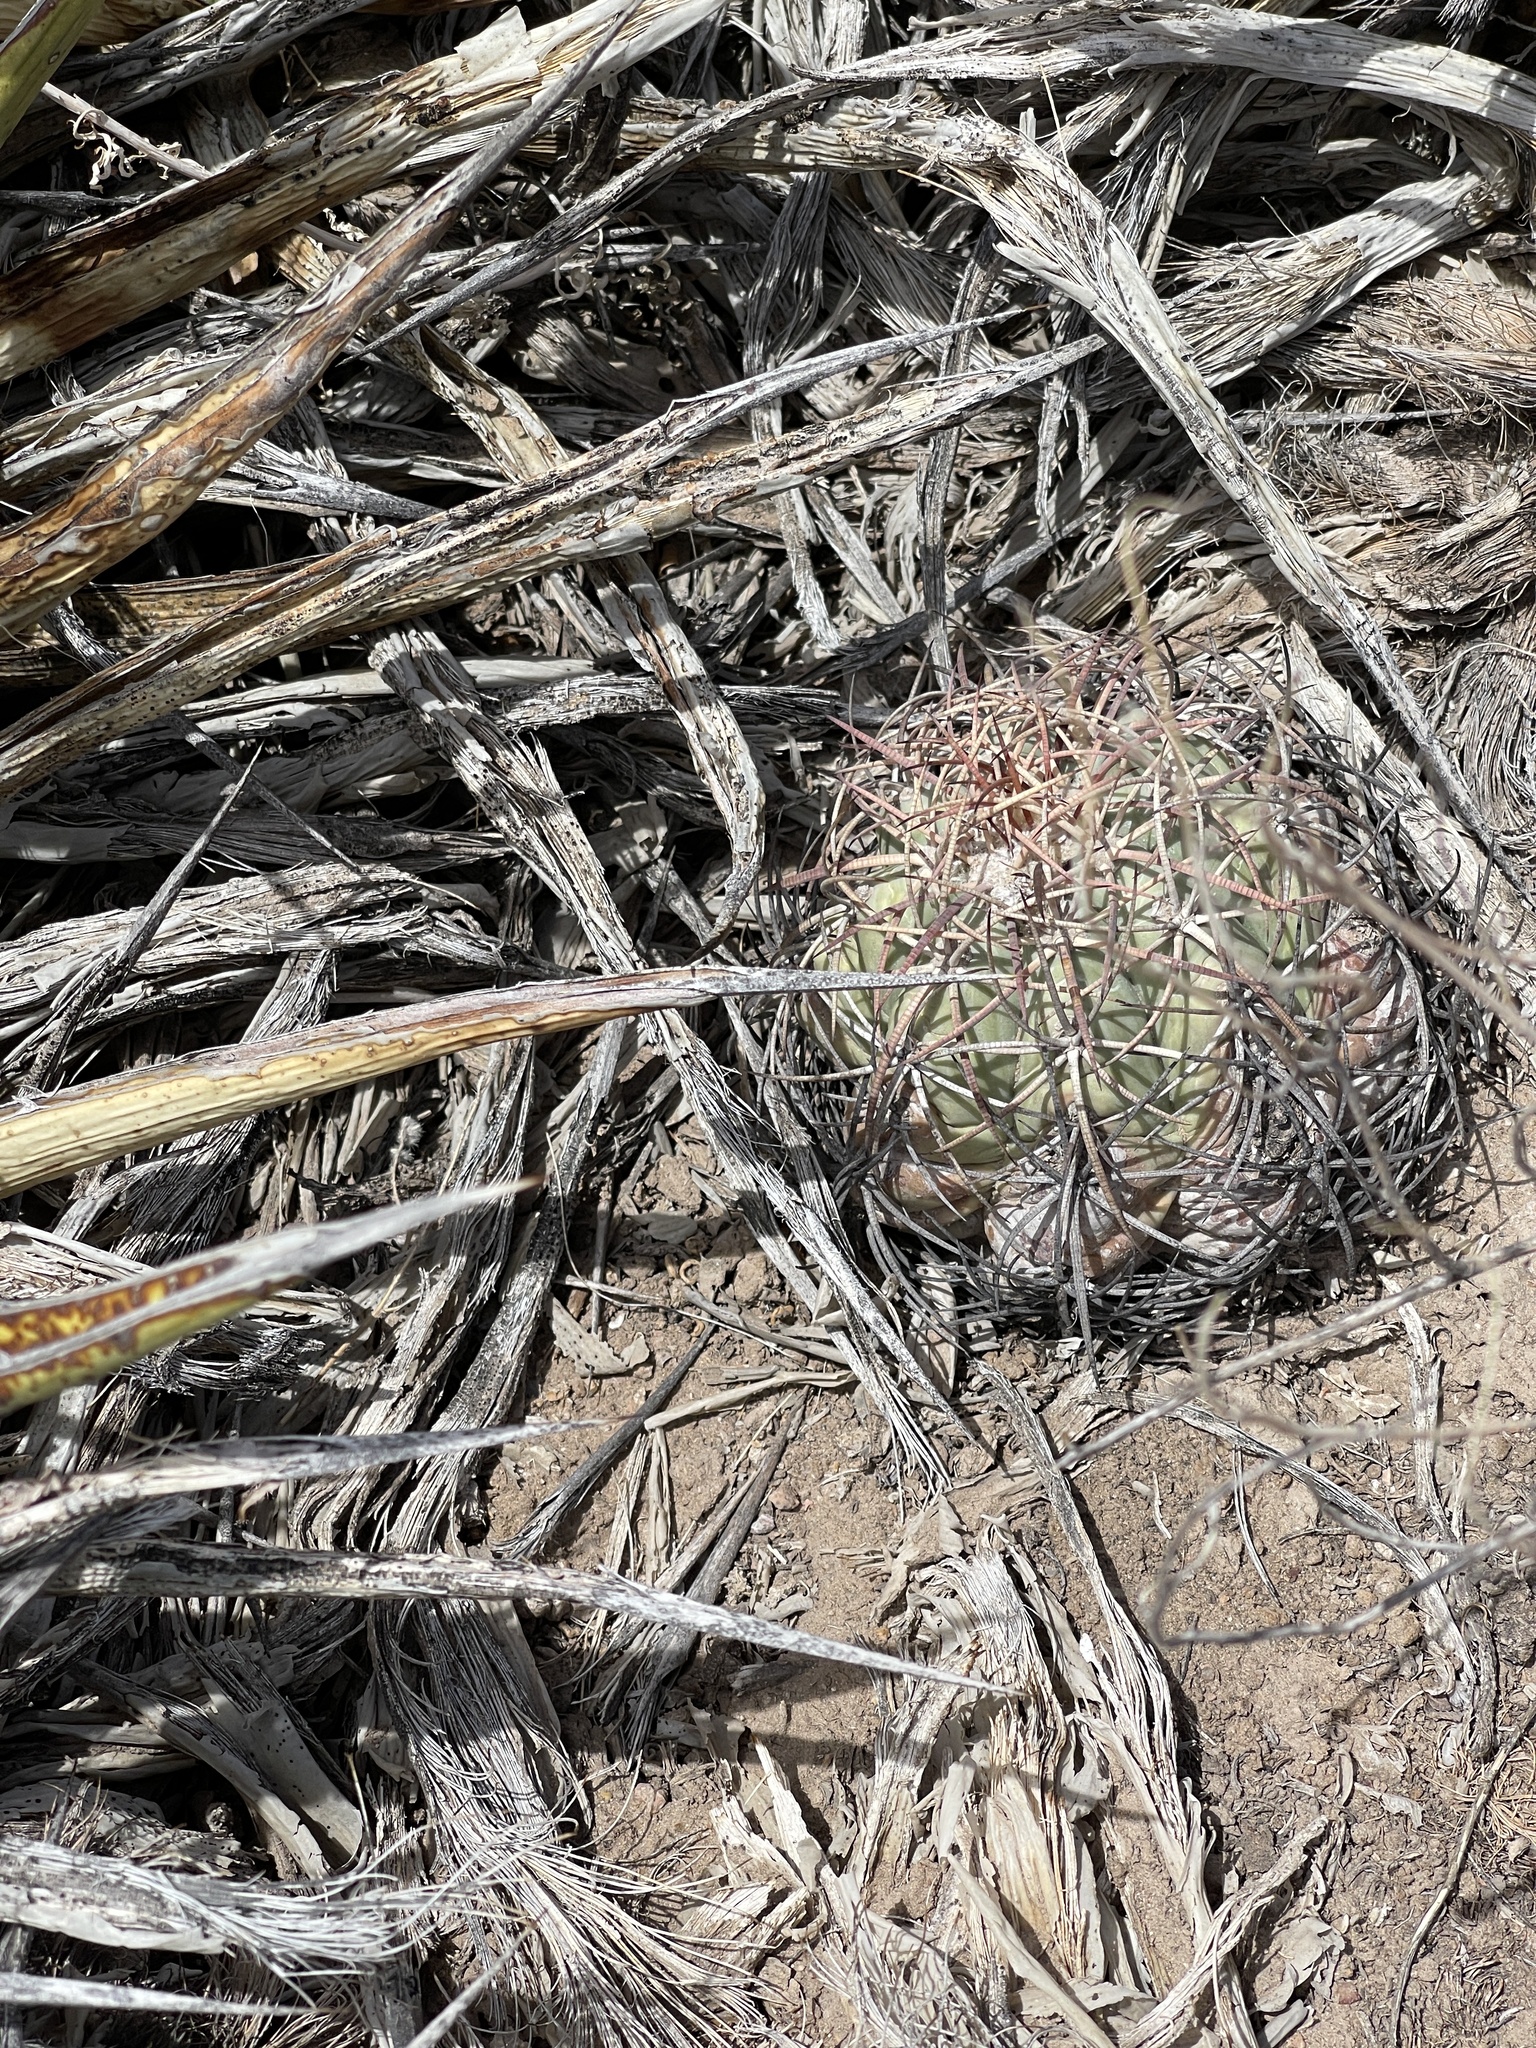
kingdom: Plantae
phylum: Tracheophyta
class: Magnoliopsida
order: Caryophyllales
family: Cactaceae
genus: Echinocactus
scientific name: Echinocactus horizonthalonius
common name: Devilshead
